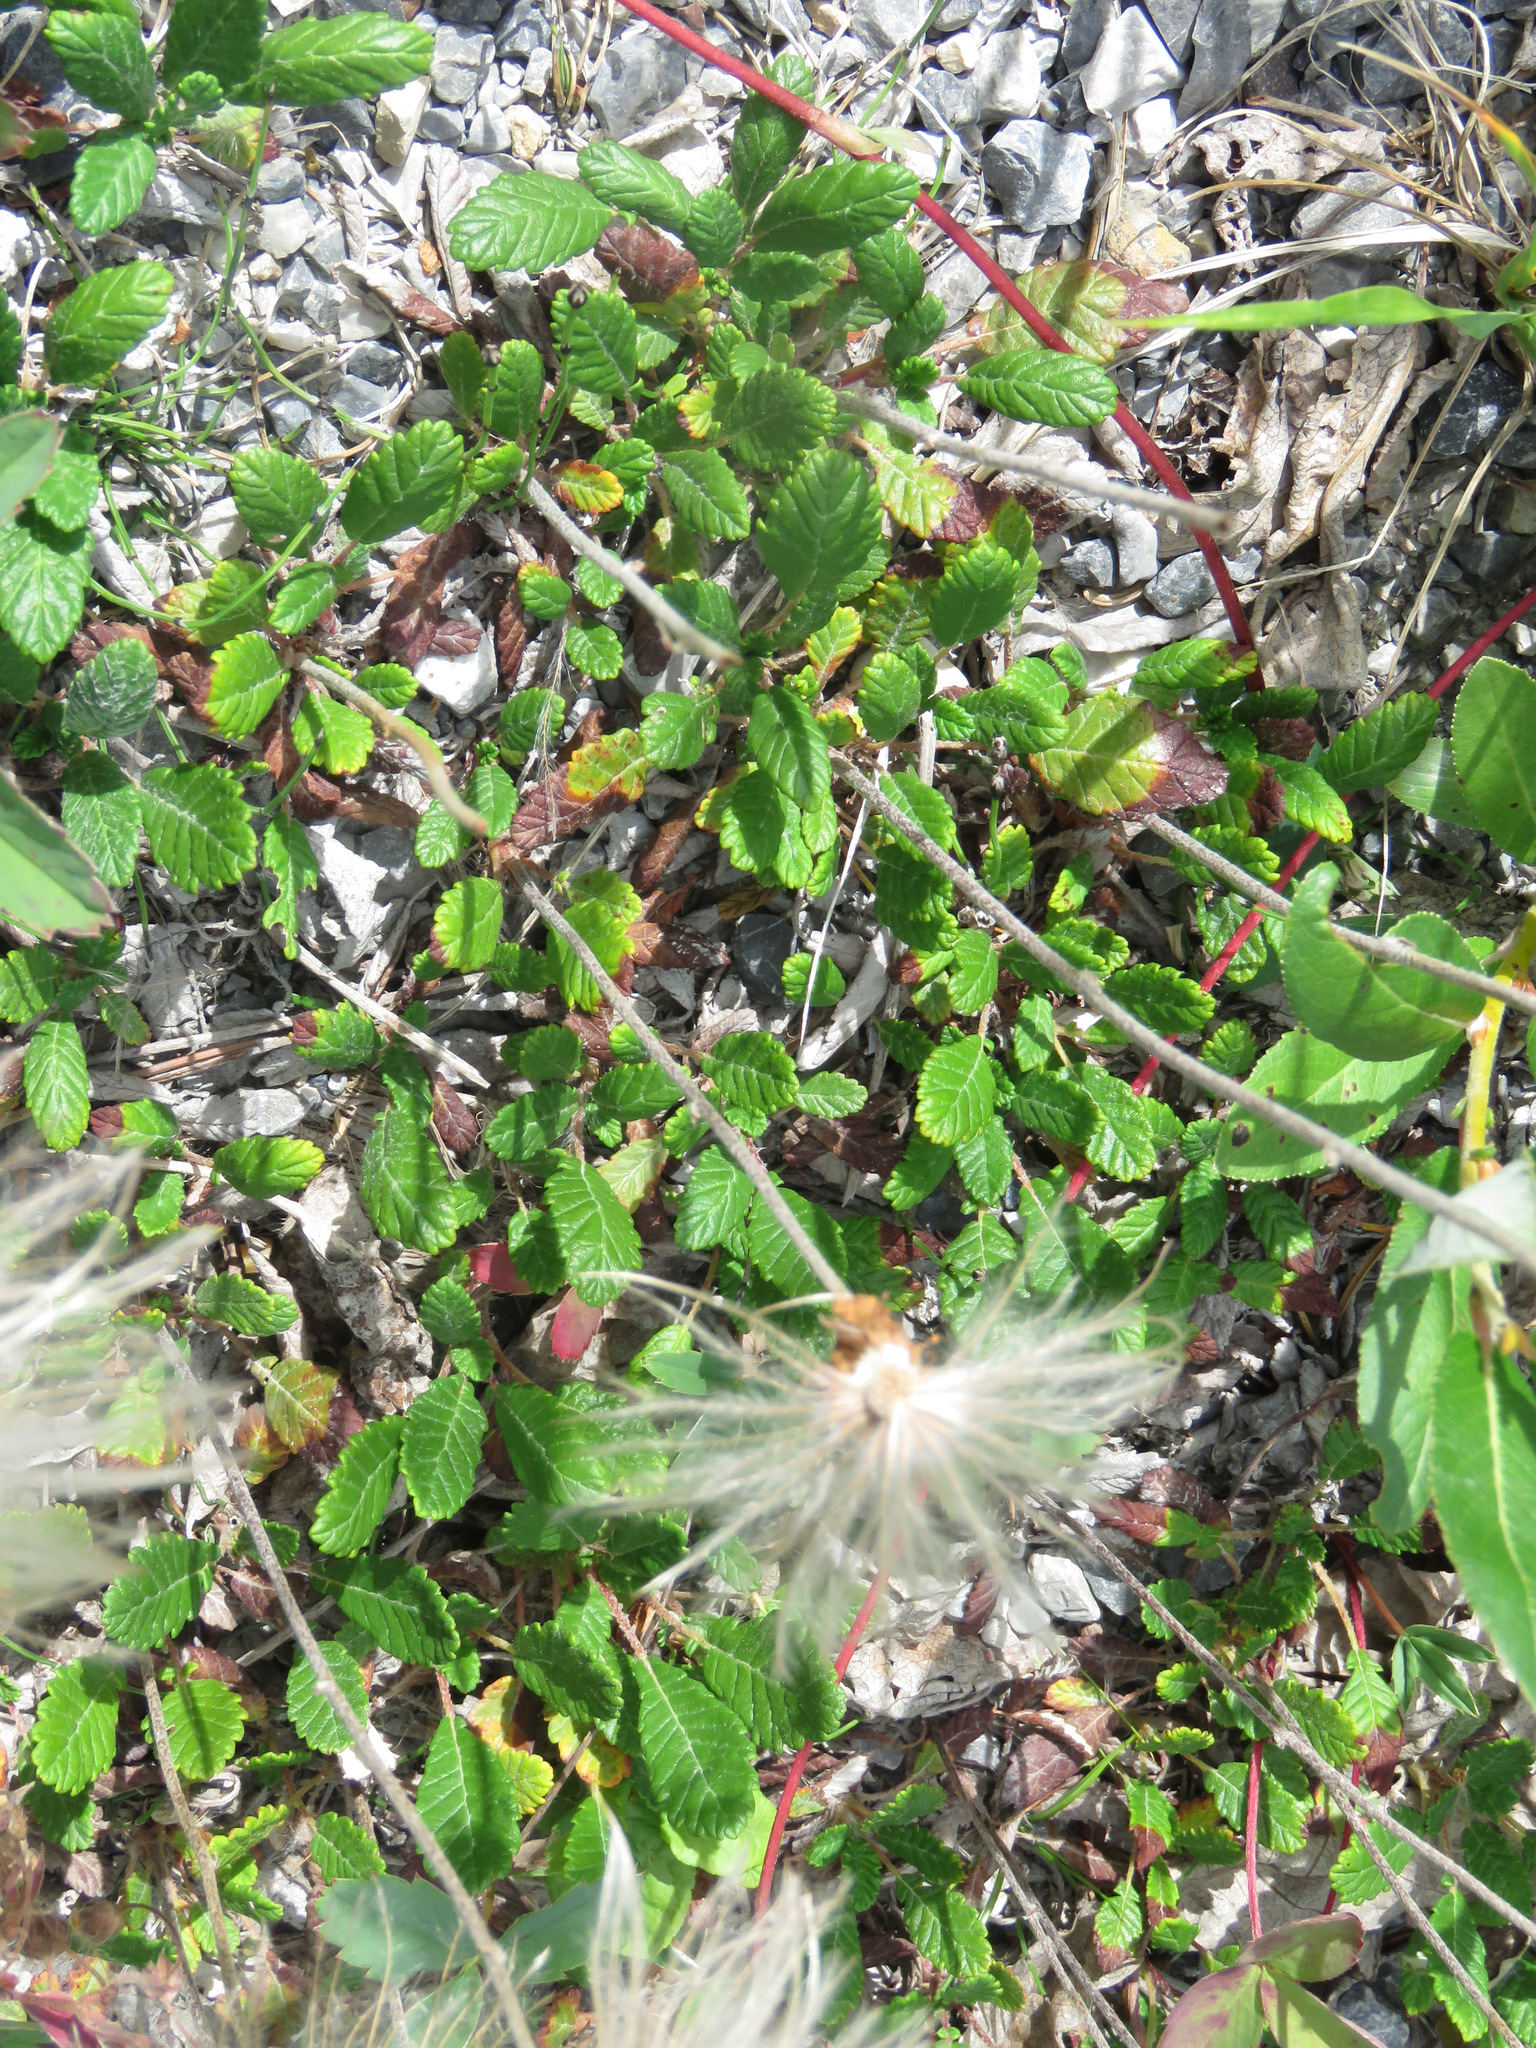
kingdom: Plantae
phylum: Tracheophyta
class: Magnoliopsida
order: Rosales
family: Rosaceae
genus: Dryas
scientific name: Dryas drummondii
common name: Drummond's dryad
